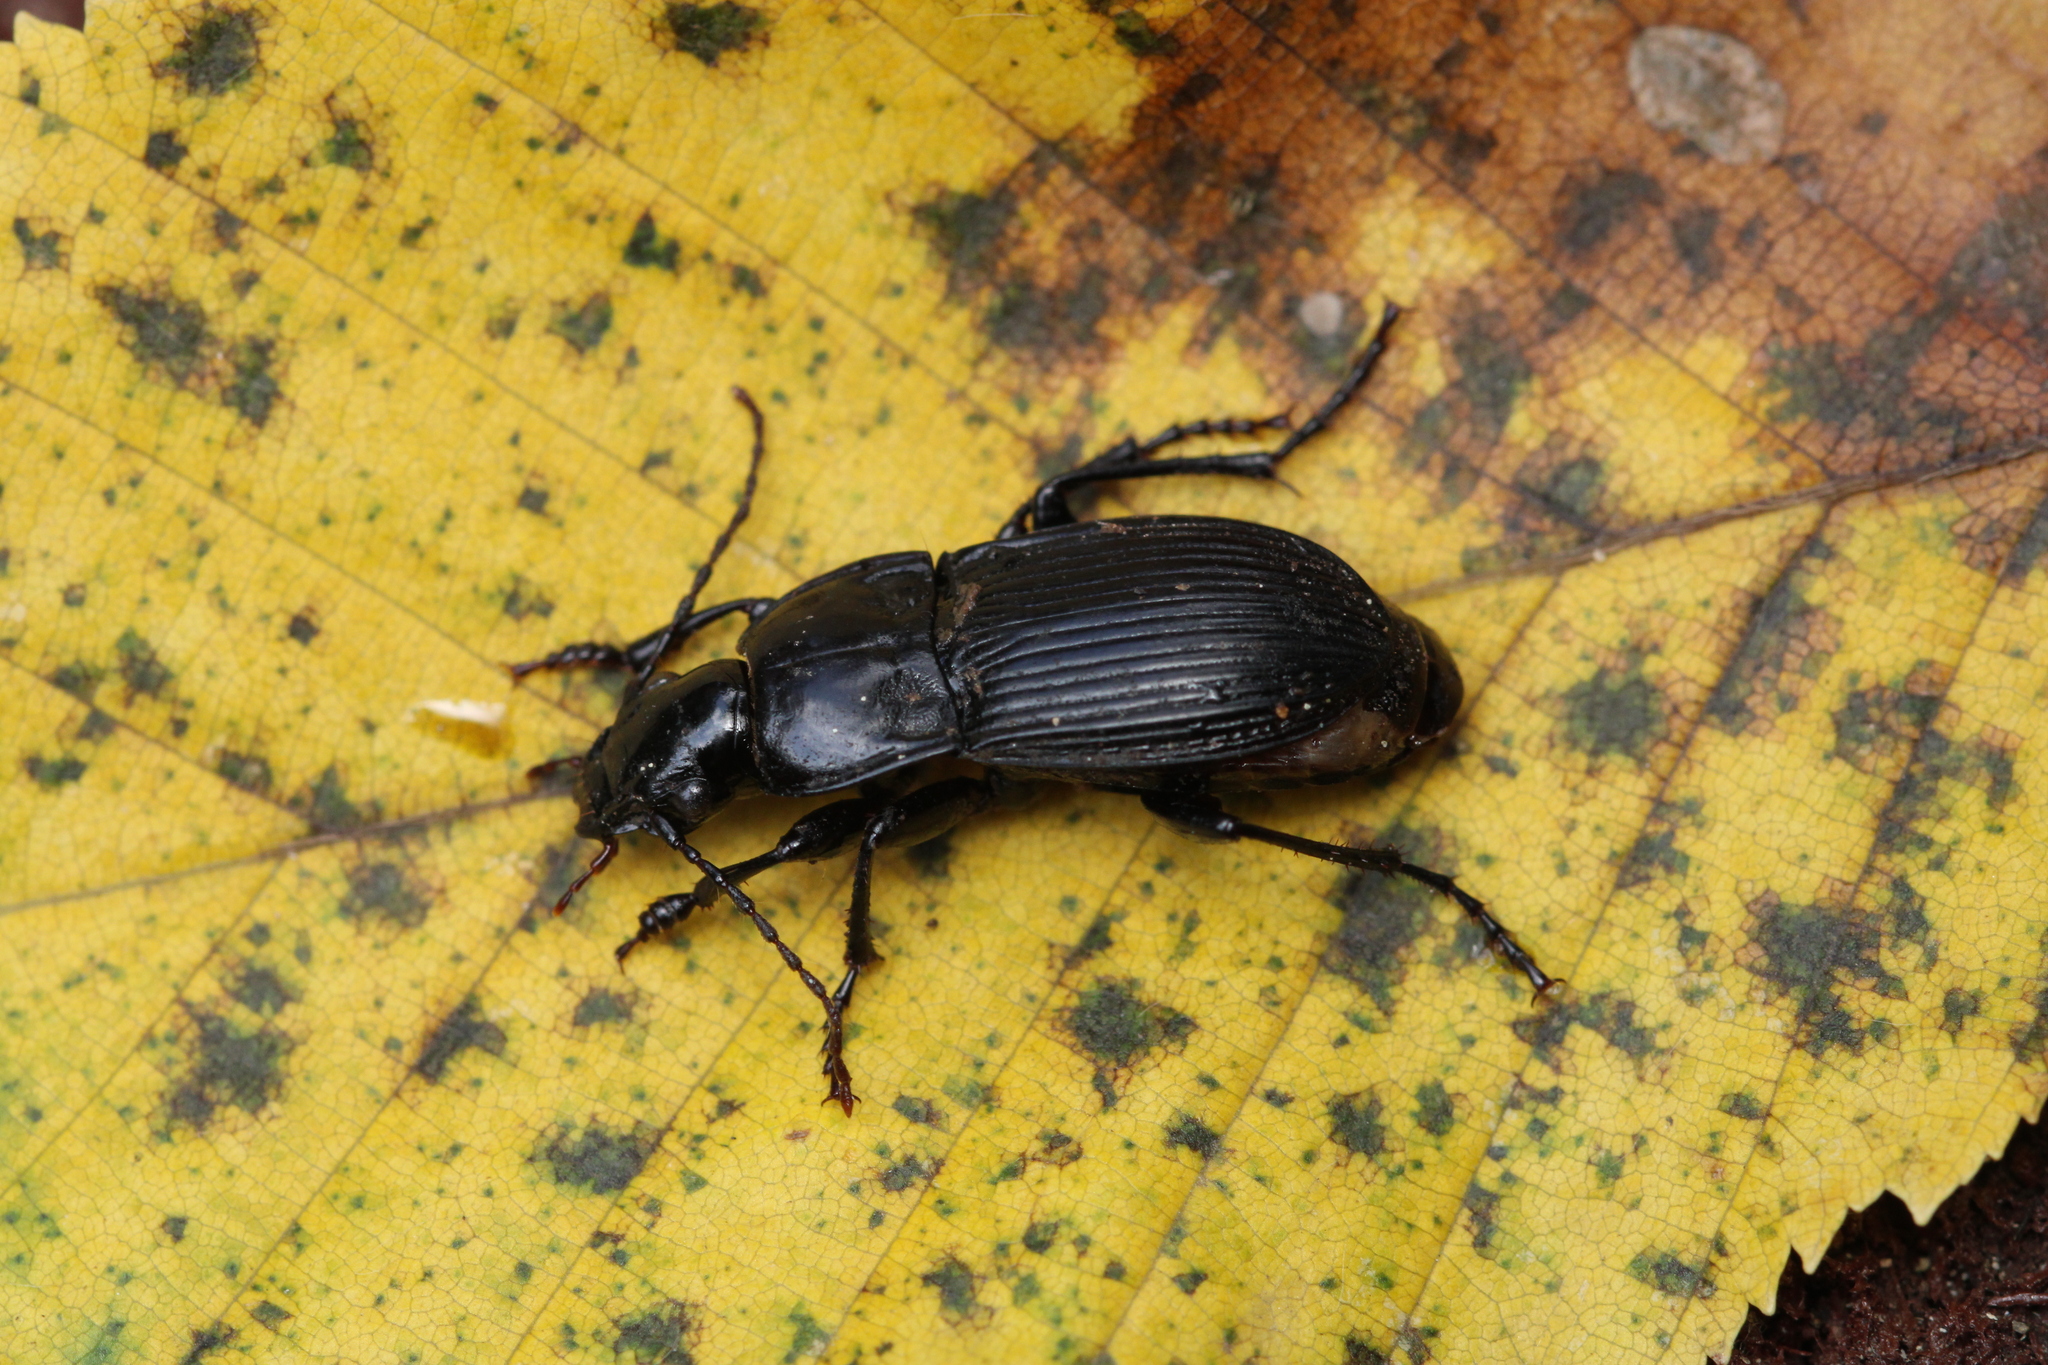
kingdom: Animalia
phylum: Arthropoda
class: Insecta
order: Coleoptera
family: Carabidae
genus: Abax
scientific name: Abax carinatus
